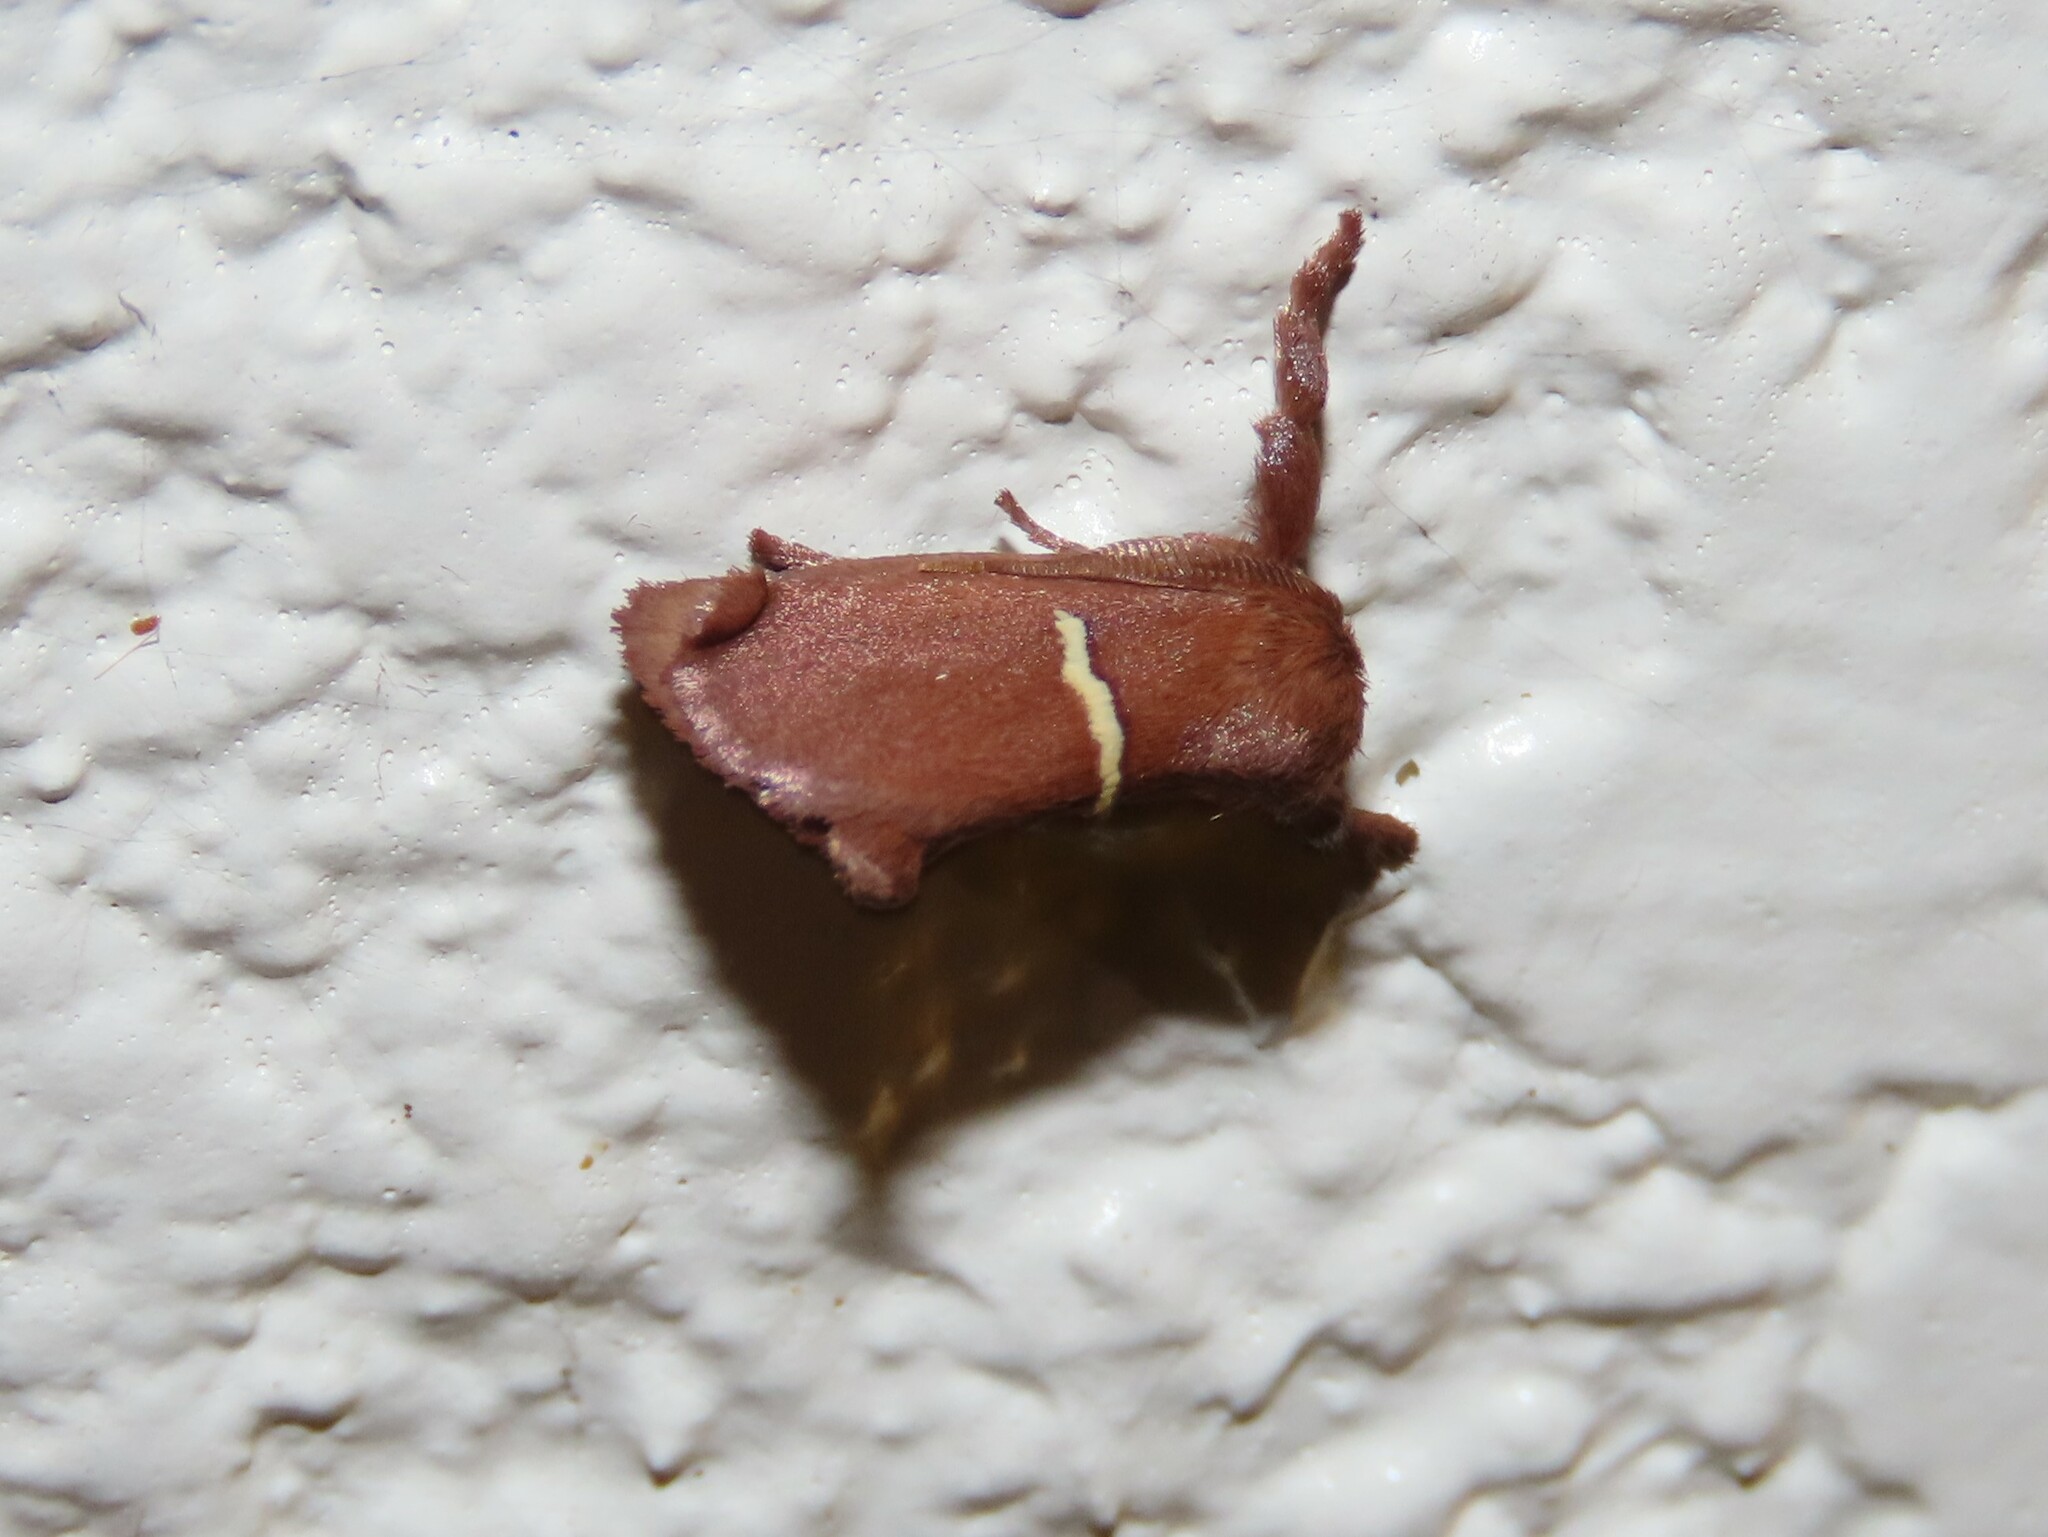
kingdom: Animalia
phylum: Arthropoda
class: Insecta
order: Lepidoptera
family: Limacodidae
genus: Monoleuca
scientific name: Monoleuca semifascia
